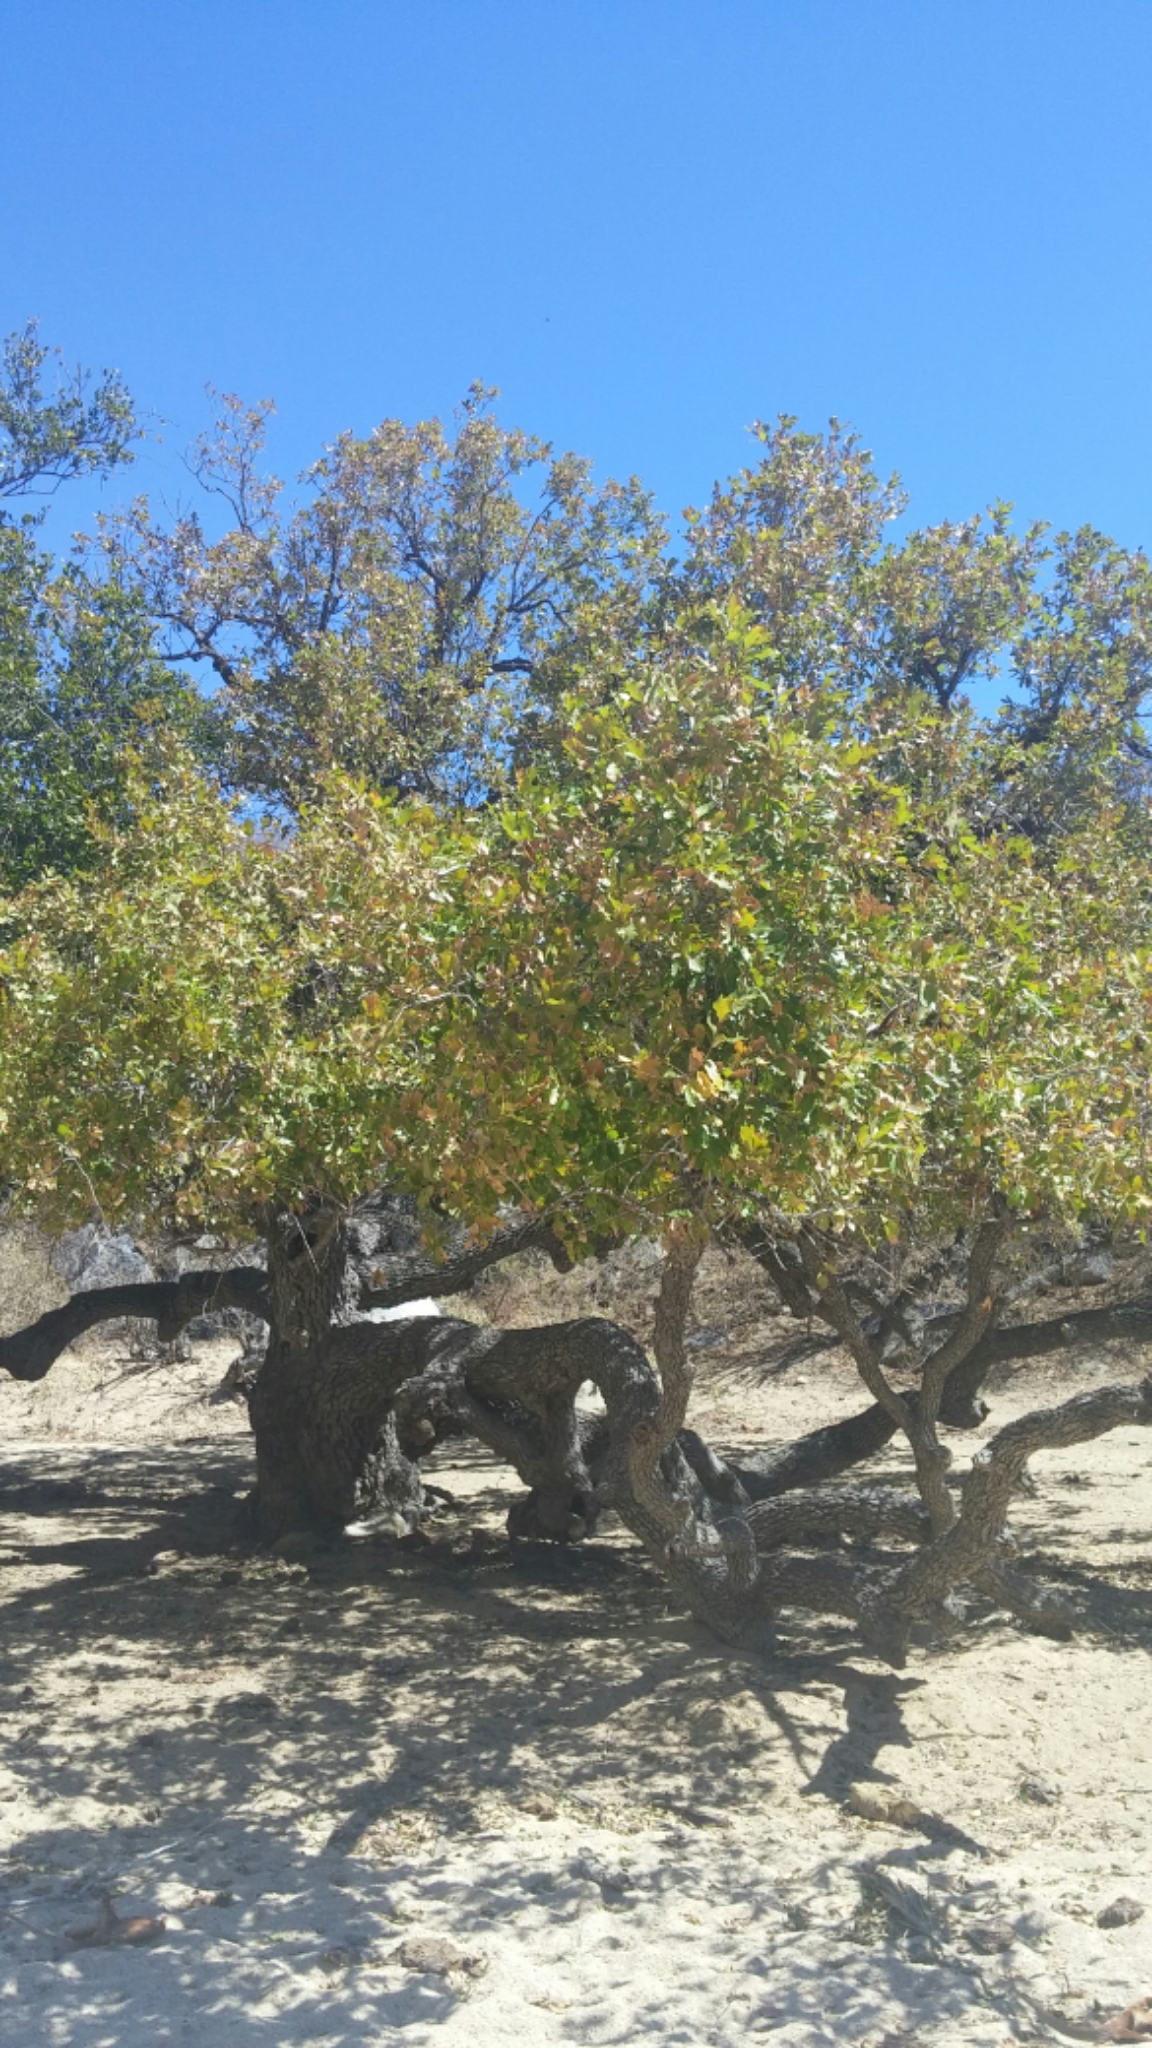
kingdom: Plantae
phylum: Tracheophyta
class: Magnoliopsida
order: Fagales
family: Fagaceae
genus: Quercus
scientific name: Quercus tuberculata
